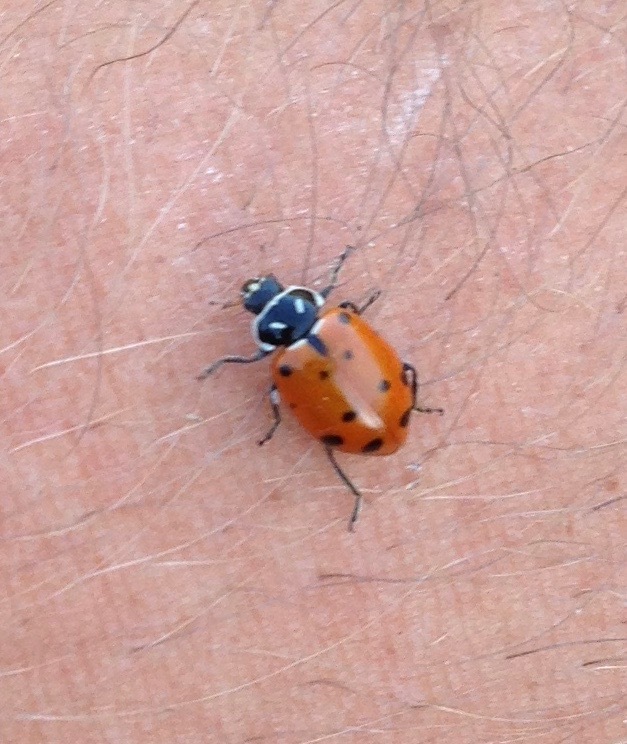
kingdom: Animalia
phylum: Arthropoda
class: Insecta
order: Coleoptera
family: Coccinellidae
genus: Hippodamia
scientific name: Hippodamia convergens
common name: Convergent lady beetle
